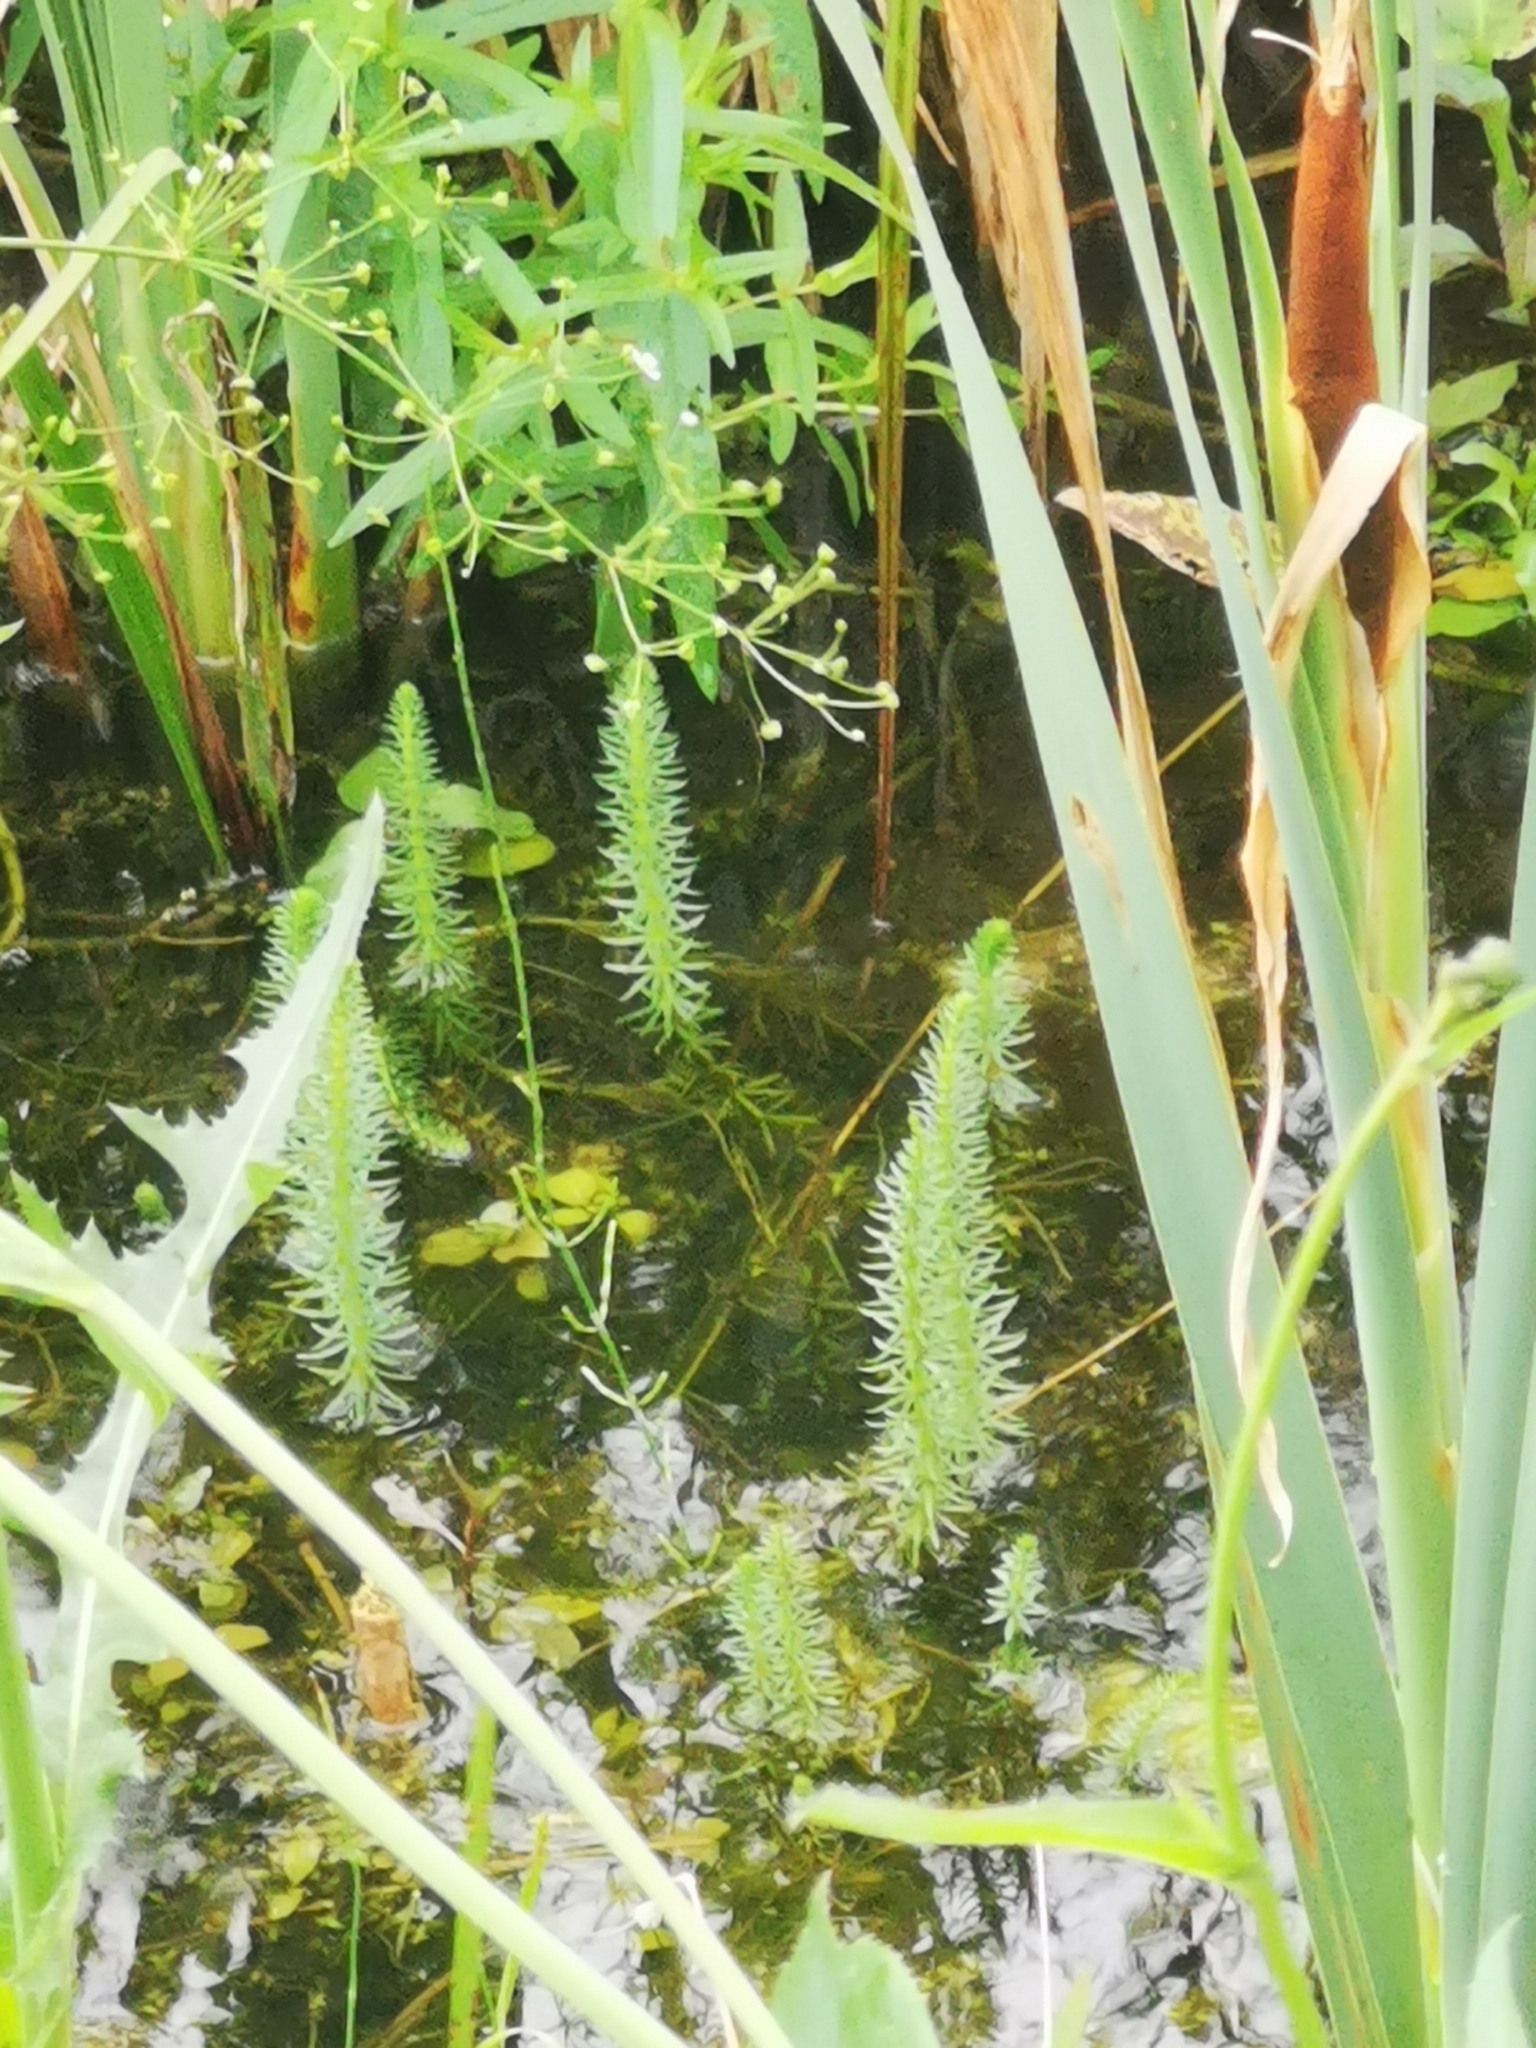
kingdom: Plantae
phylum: Tracheophyta
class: Magnoliopsida
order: Lamiales
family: Plantaginaceae
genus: Hippuris
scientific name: Hippuris vulgaris
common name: Mare's-tail
